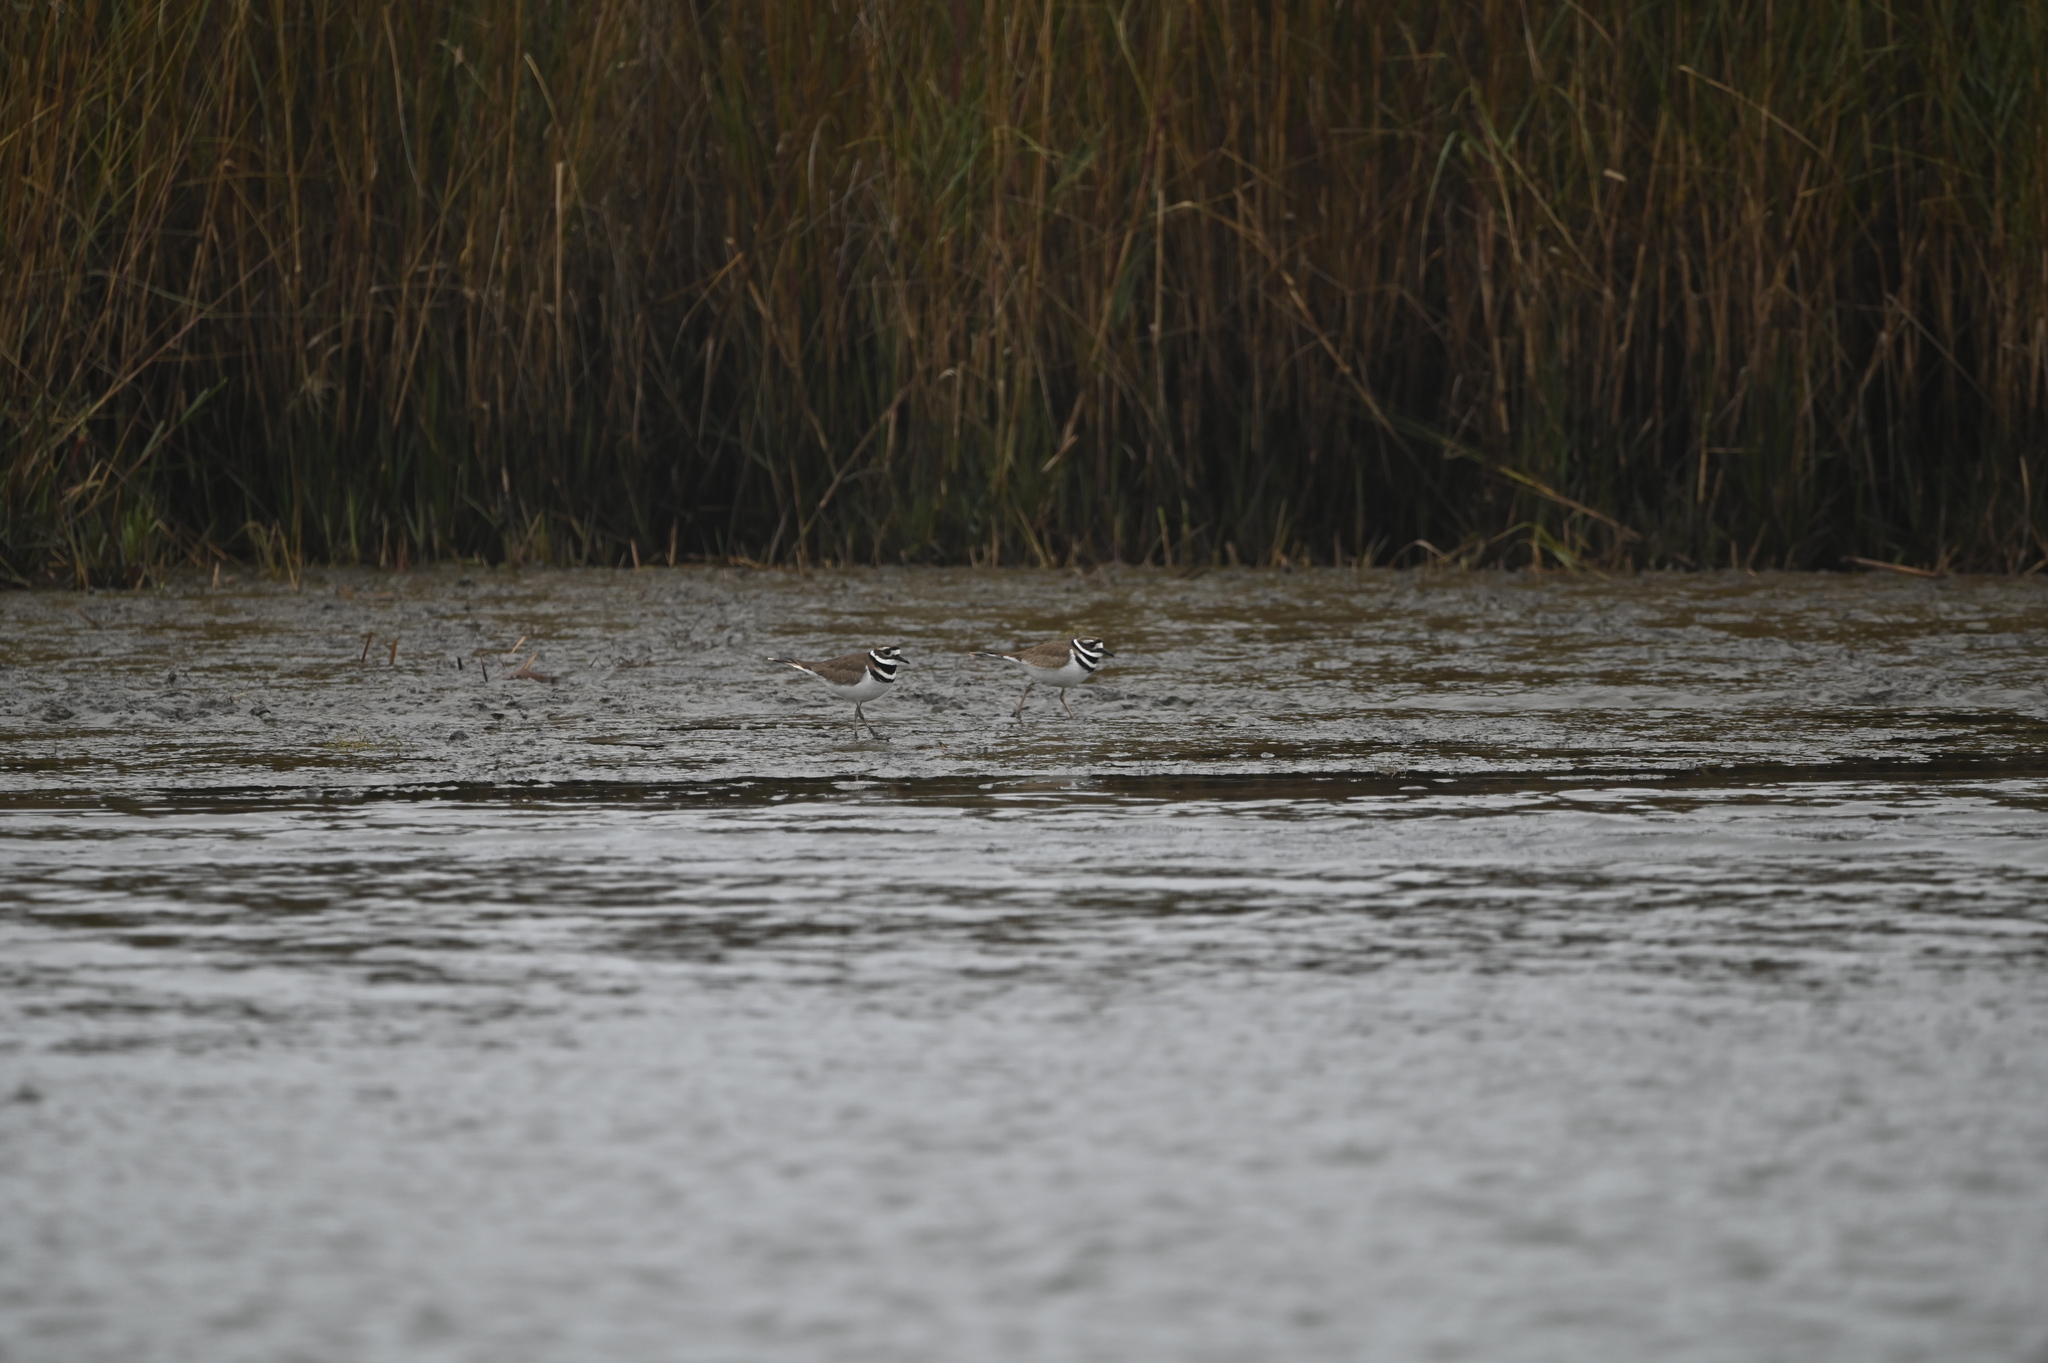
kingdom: Animalia
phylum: Chordata
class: Aves
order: Charadriiformes
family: Charadriidae
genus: Charadrius
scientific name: Charadrius vociferus
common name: Killdeer
